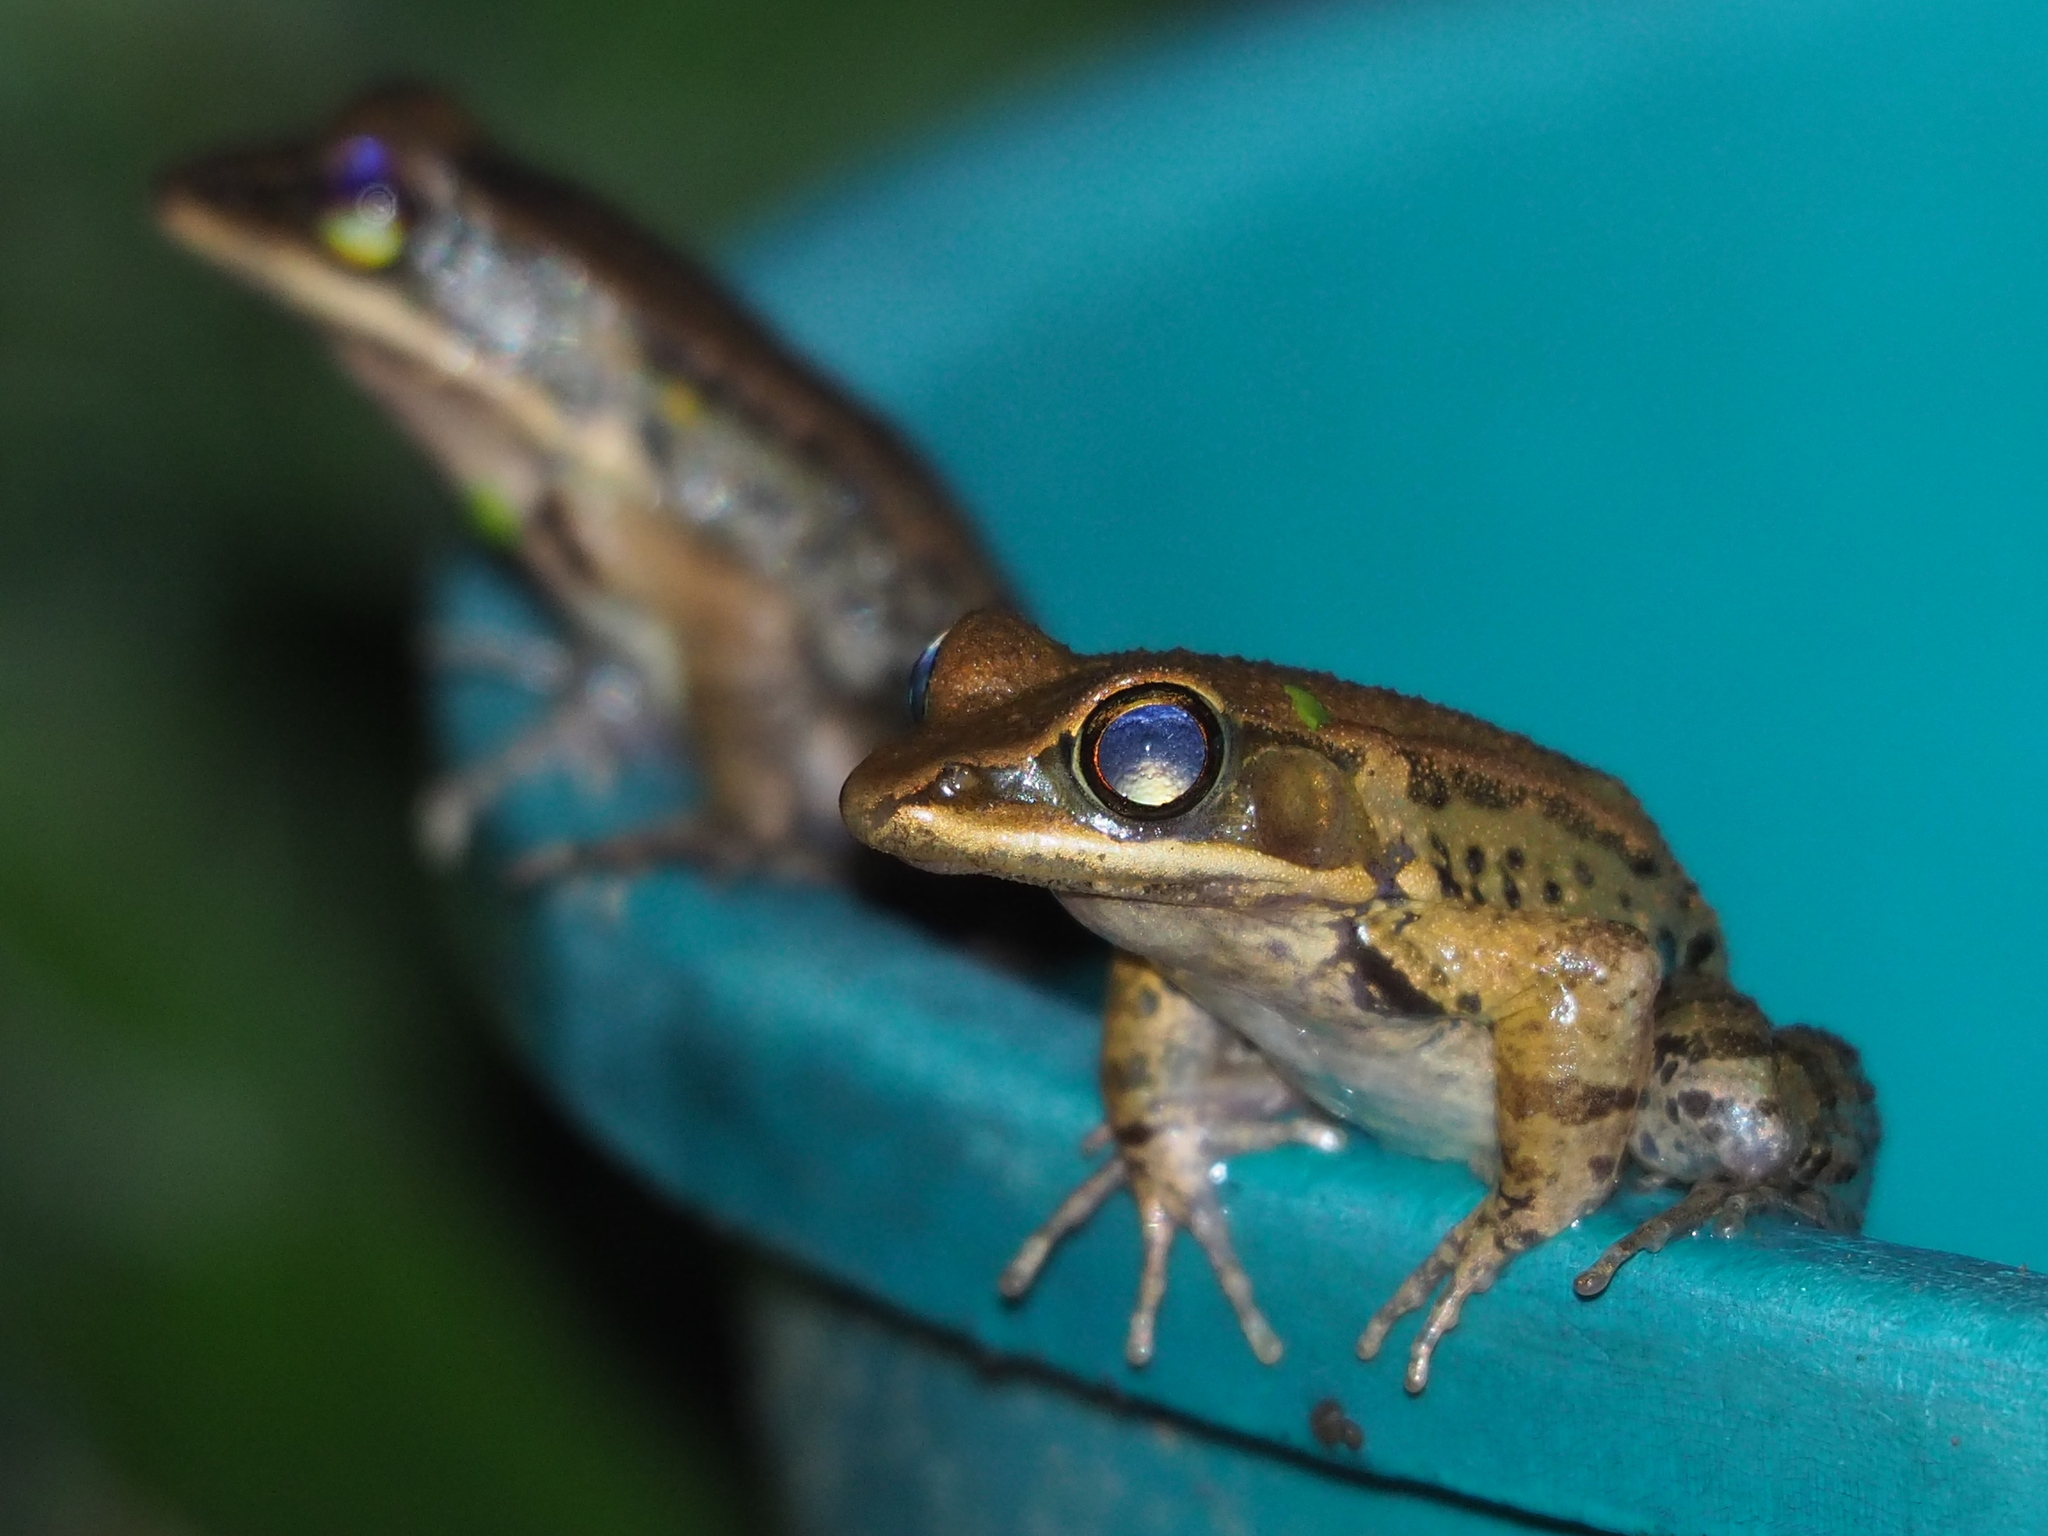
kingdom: Animalia
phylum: Chordata
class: Amphibia
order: Anura
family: Ranidae
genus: Hylarana
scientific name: Hylarana latouchii
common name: Broad-folded frog
